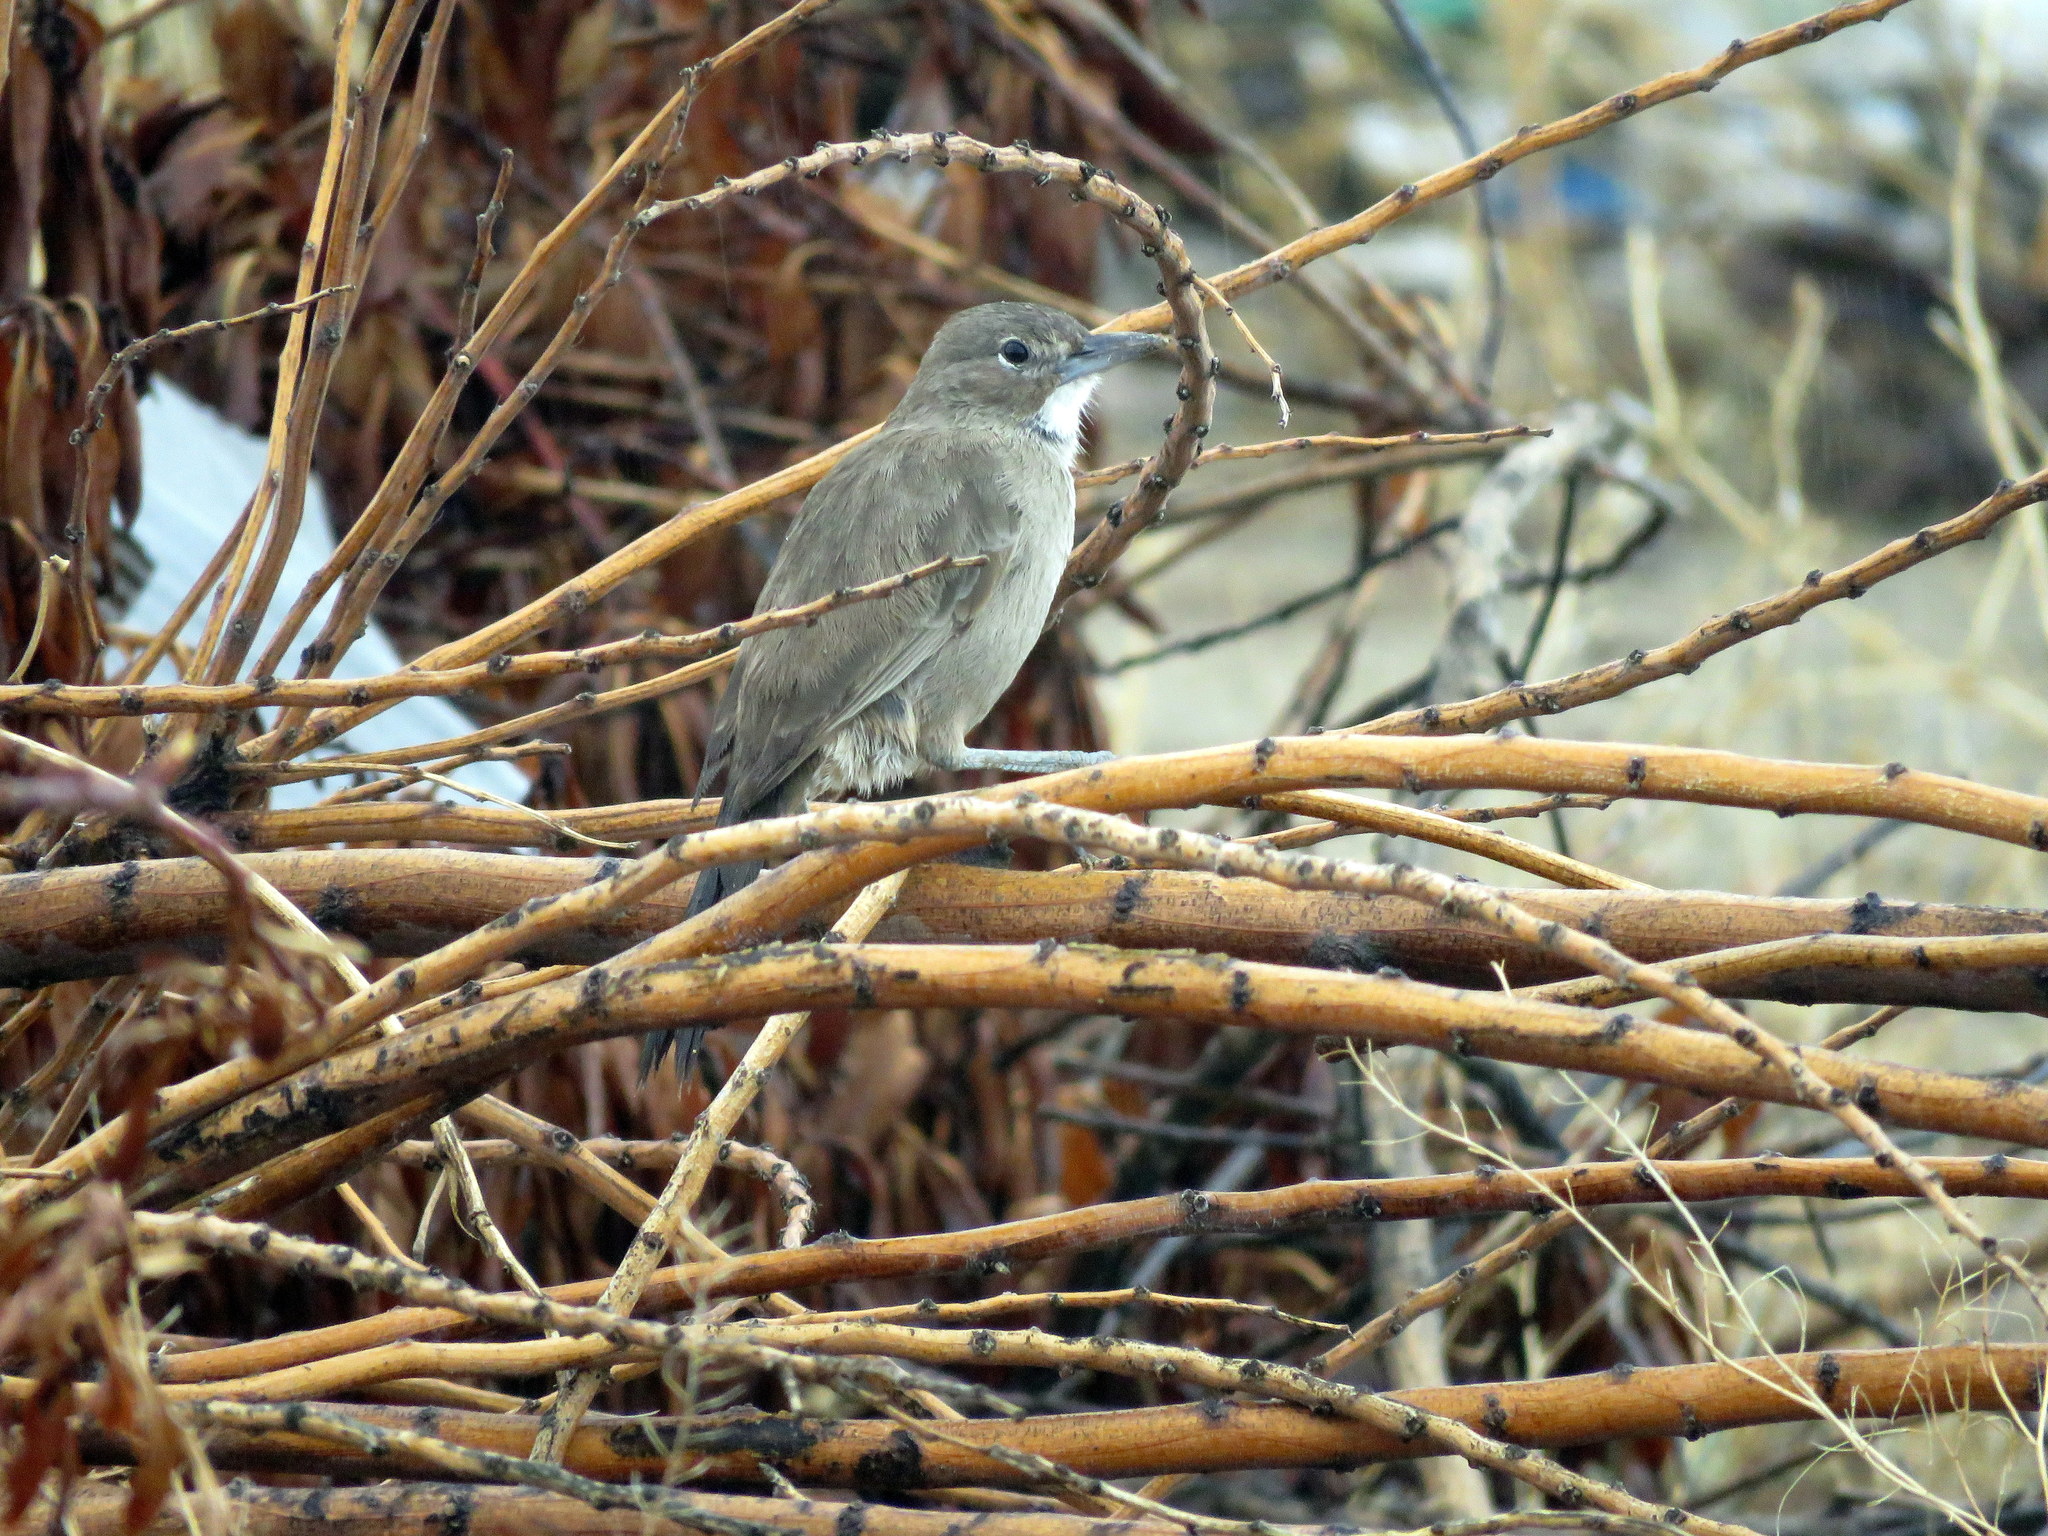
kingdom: Animalia
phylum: Chordata
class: Aves
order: Passeriformes
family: Furnariidae
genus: Pseudoseisura
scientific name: Pseudoseisura gutturalis
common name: White-throated cacholote
